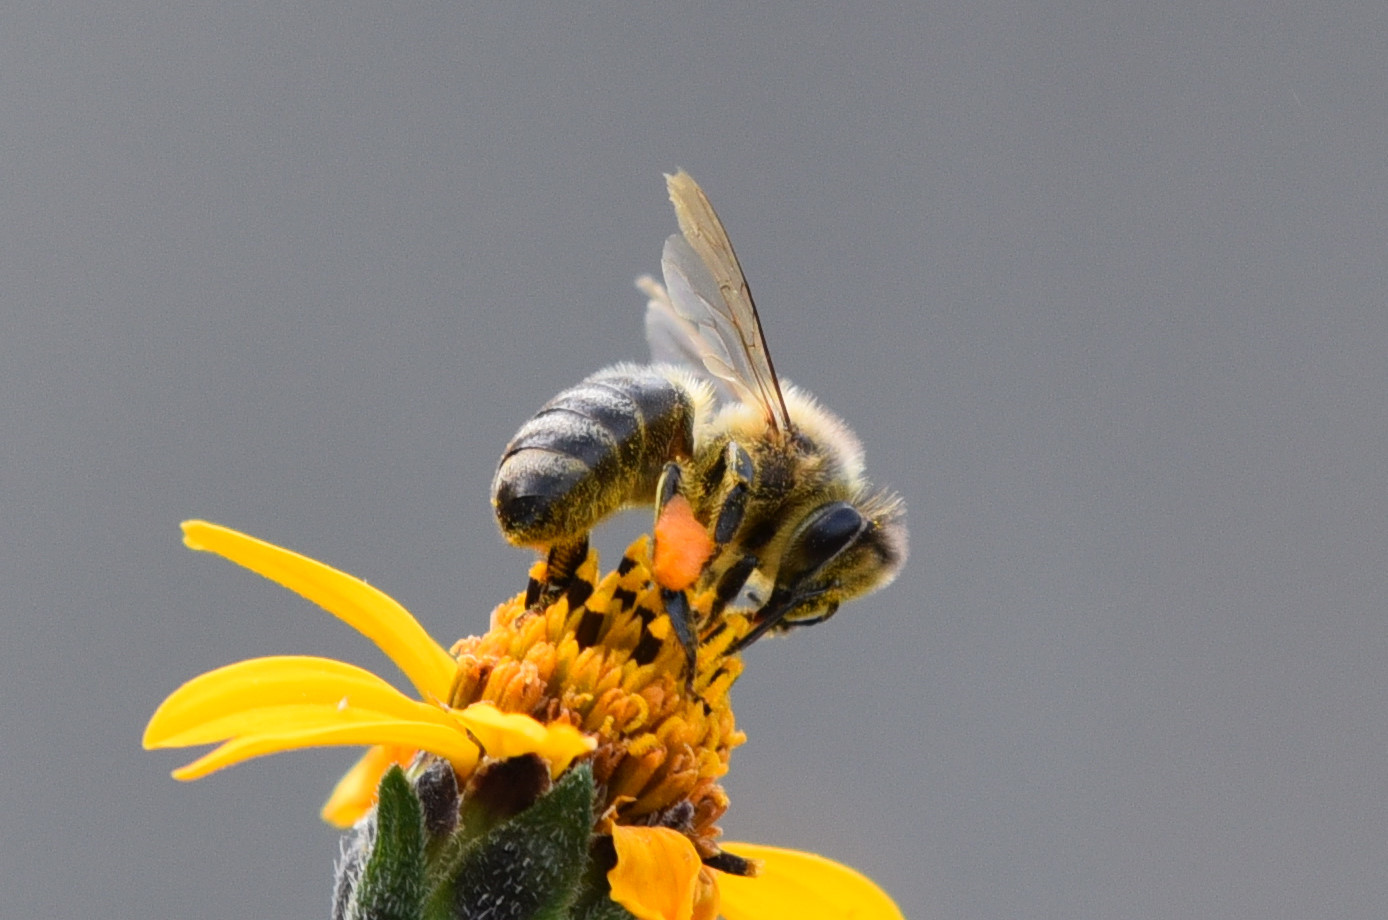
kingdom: Animalia
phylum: Arthropoda
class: Insecta
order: Hymenoptera
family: Apidae
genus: Apis
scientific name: Apis mellifera
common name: Honey bee
